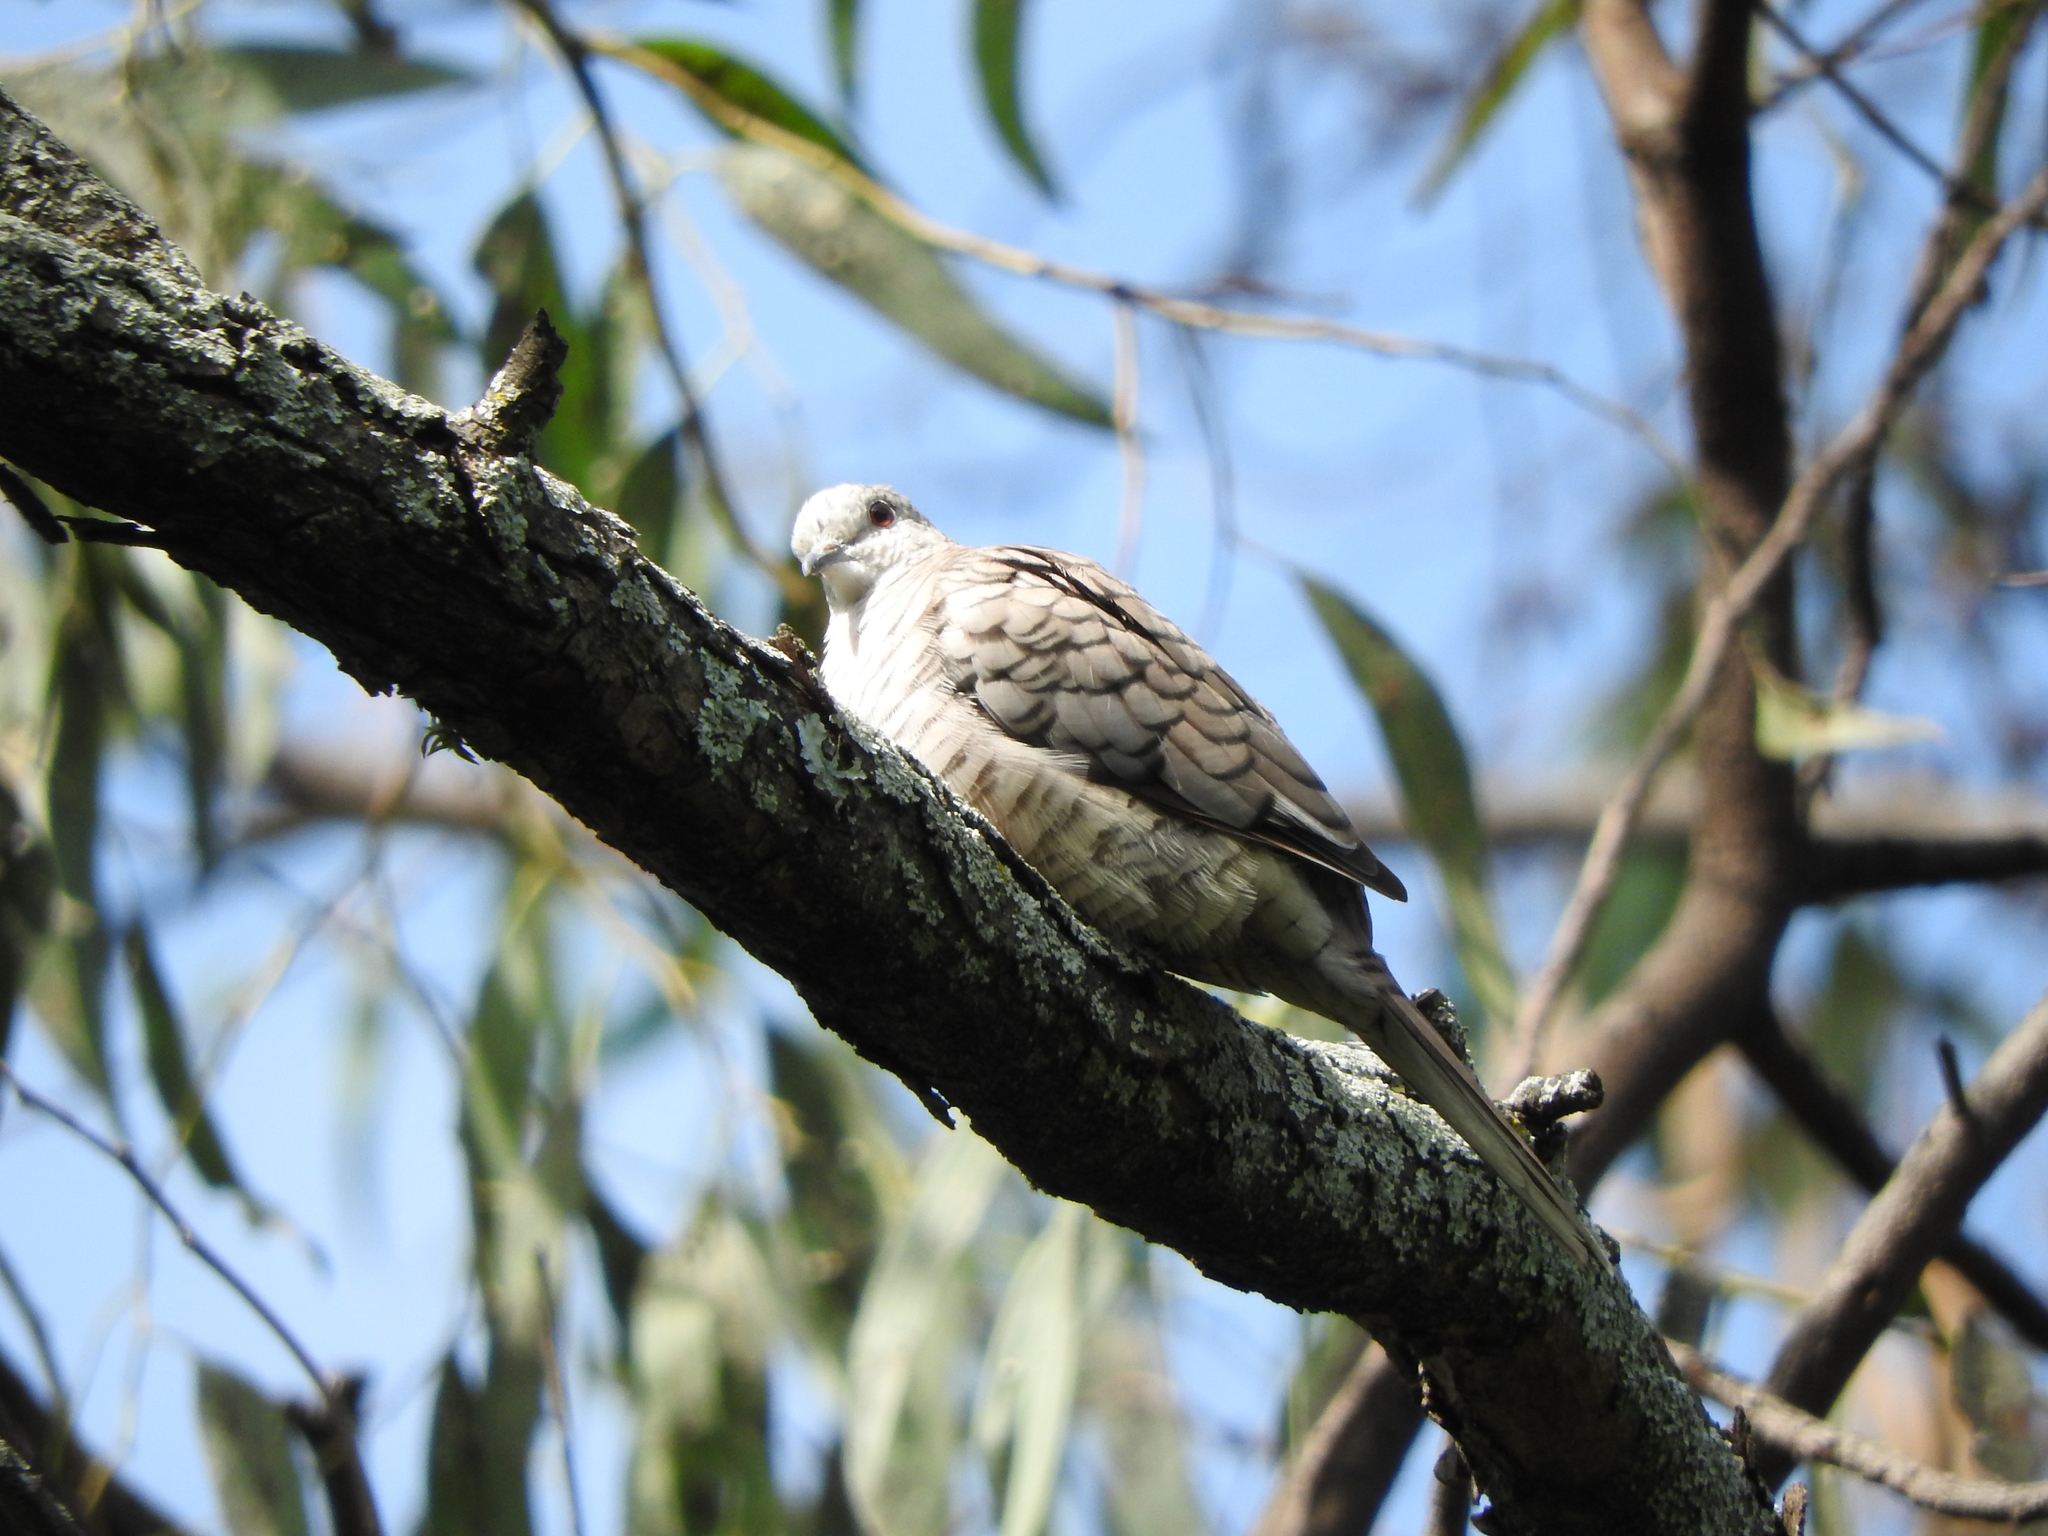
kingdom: Animalia
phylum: Chordata
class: Aves
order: Columbiformes
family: Columbidae
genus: Columbina
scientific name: Columbina inca
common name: Inca dove
